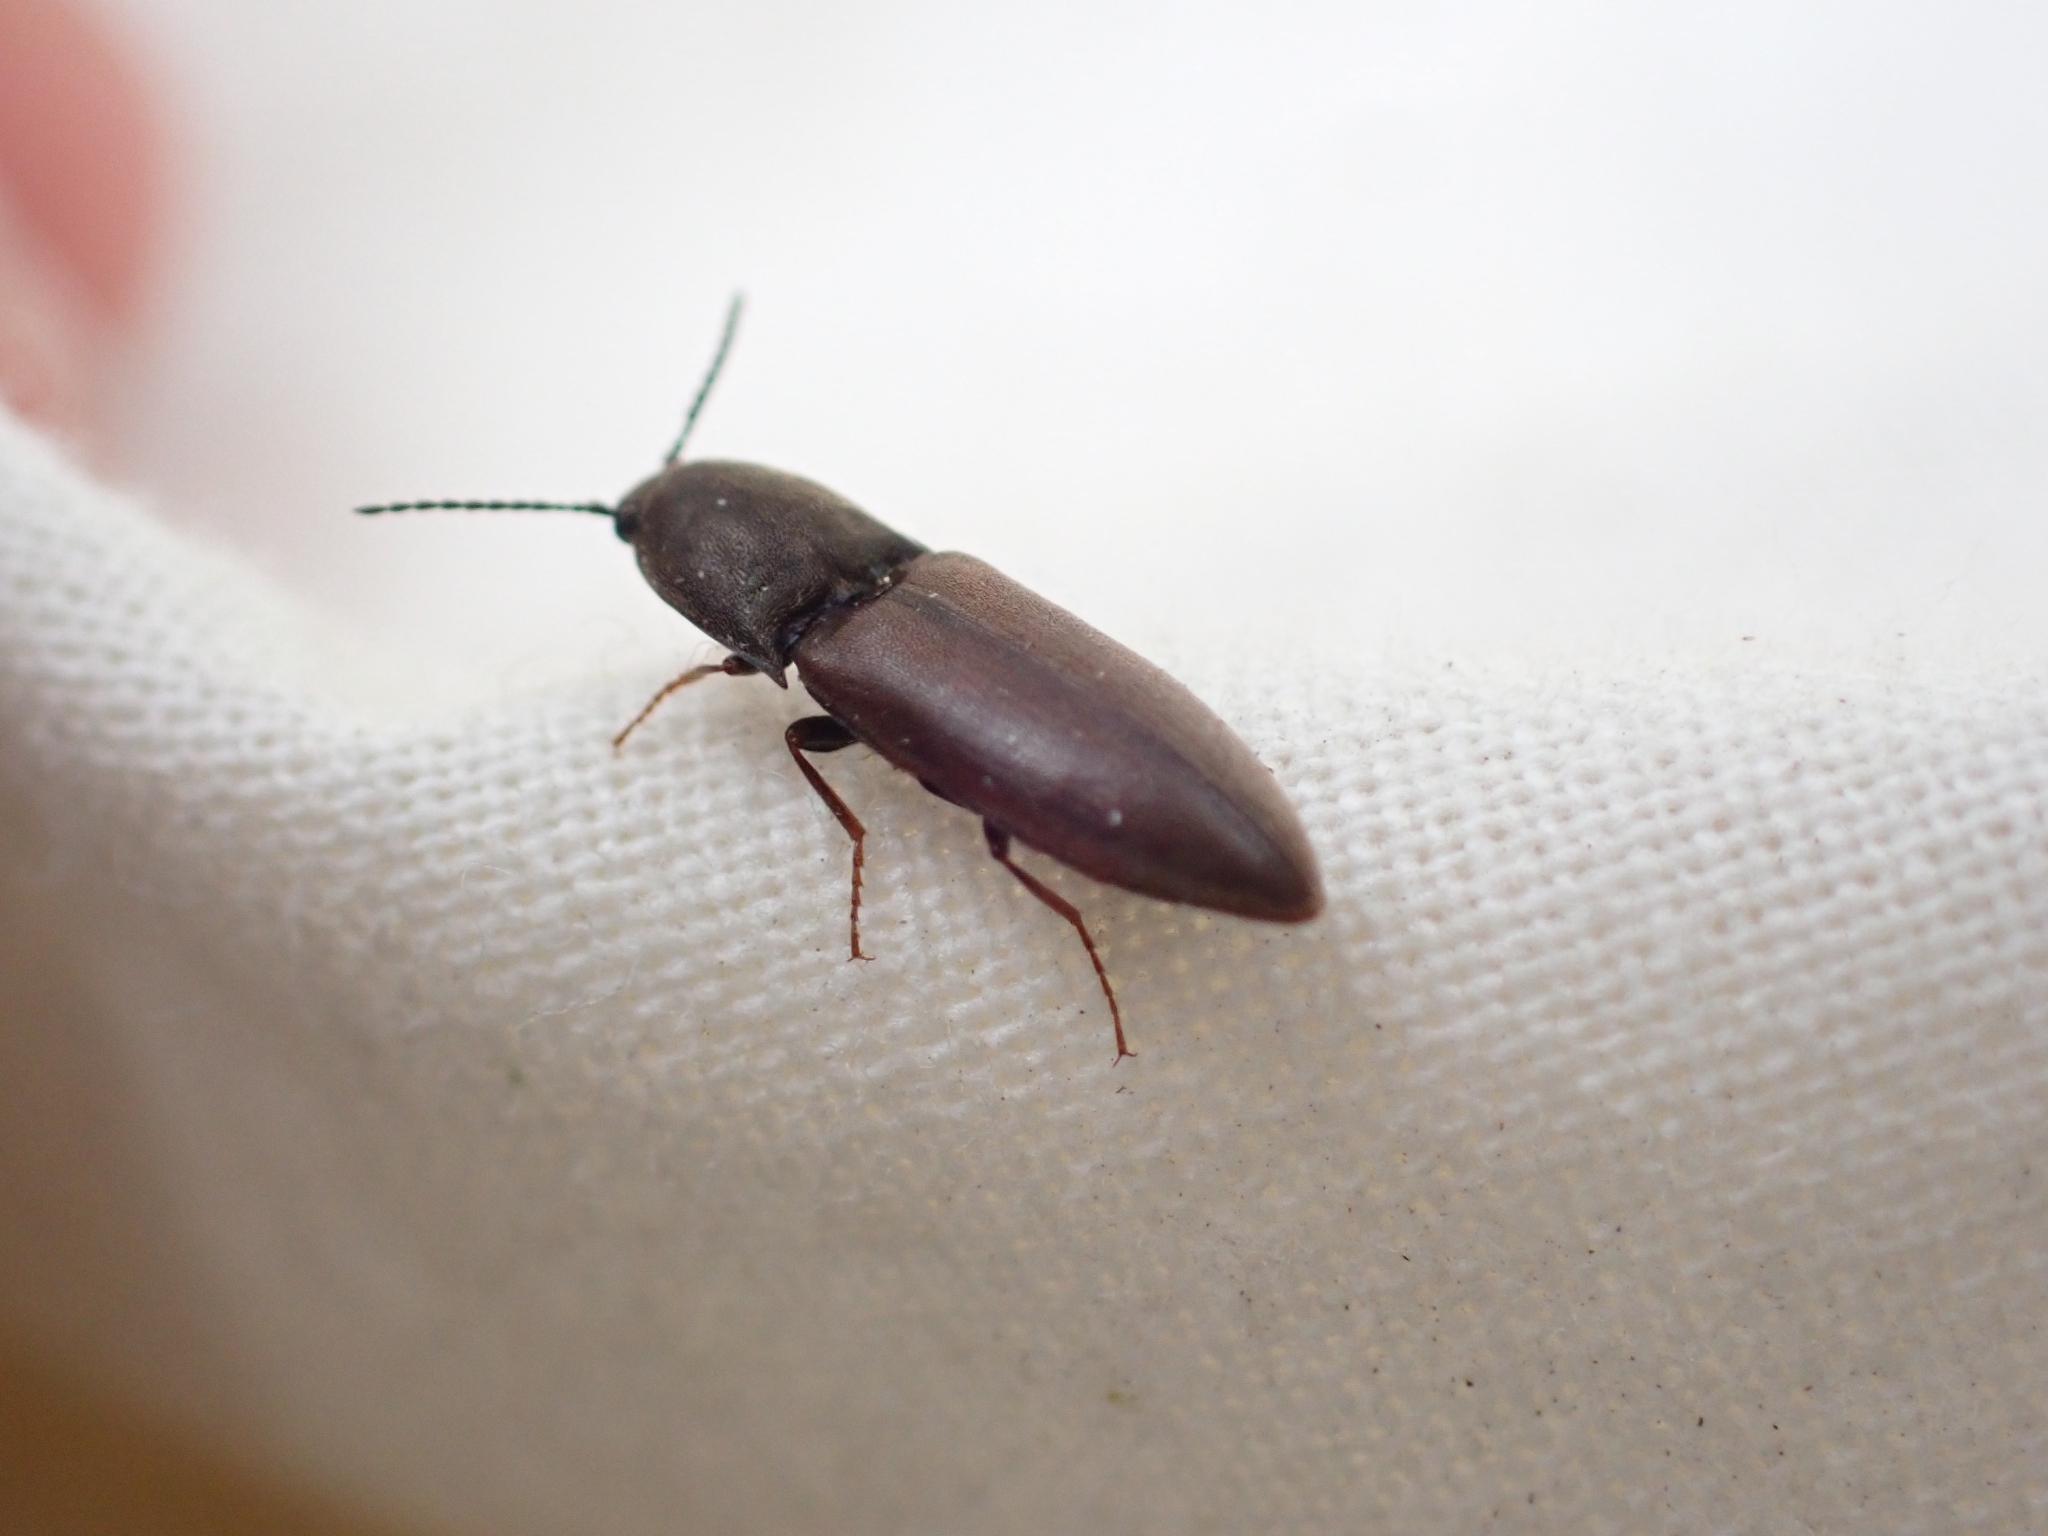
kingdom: Animalia
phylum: Arthropoda
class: Insecta
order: Coleoptera
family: Elateridae
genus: Sericus
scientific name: Sericus incongruus
